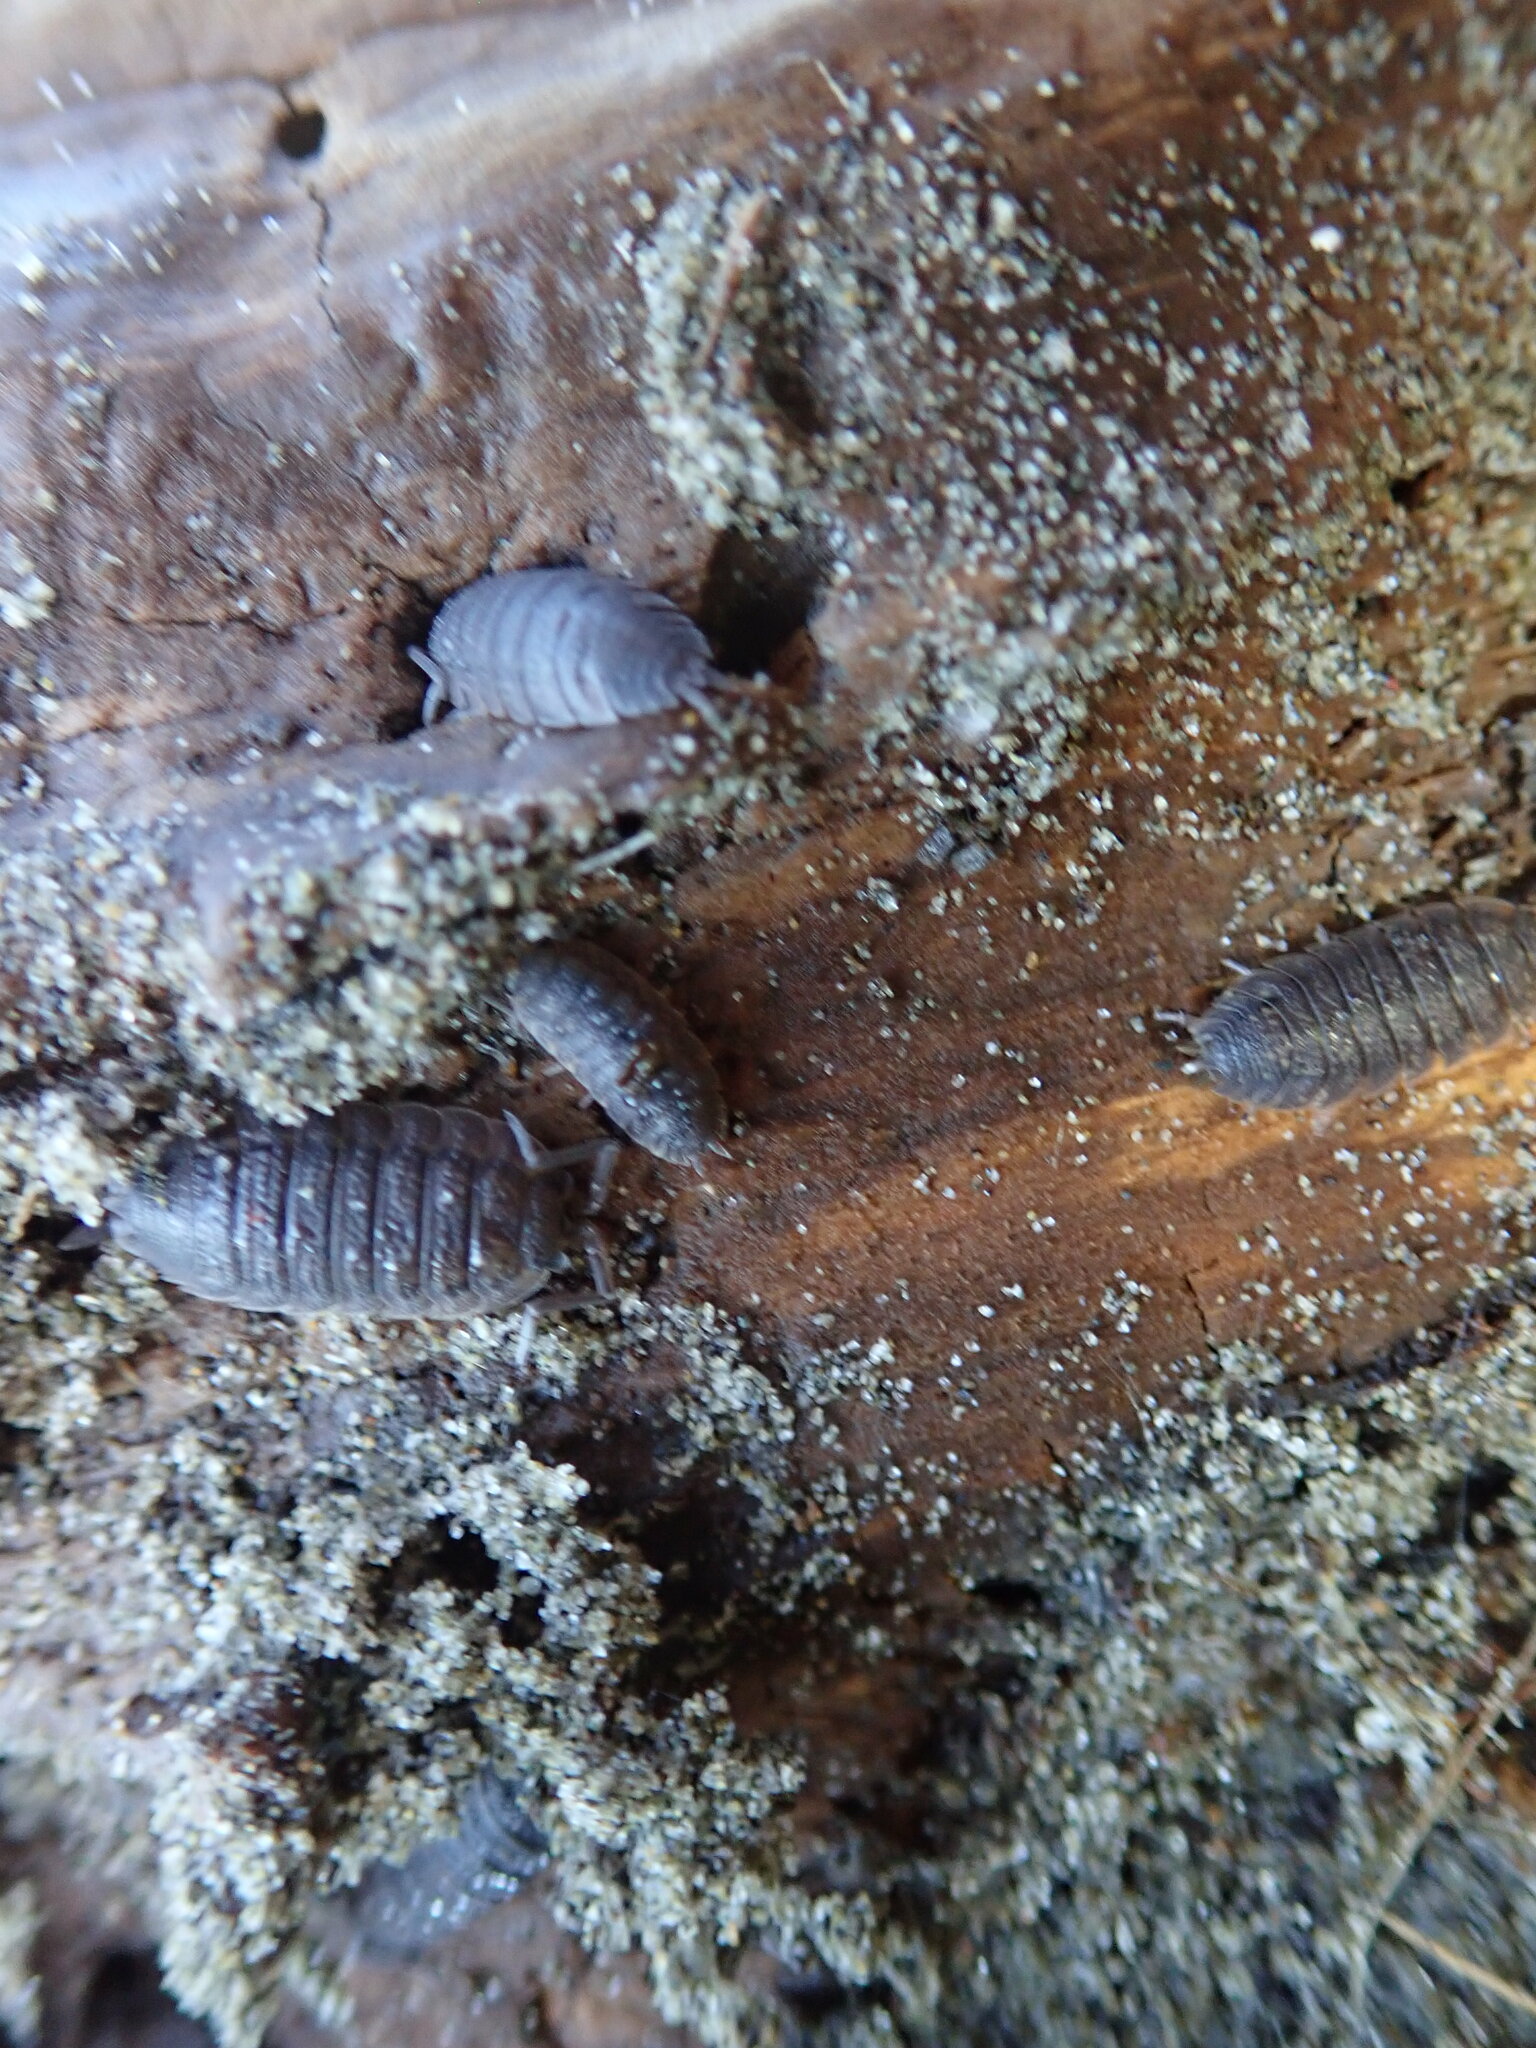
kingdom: Animalia
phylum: Arthropoda
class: Arachnida
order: Araneae
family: Dysderidae
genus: Dysdera
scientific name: Dysdera crocata
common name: Woodlouse spider
